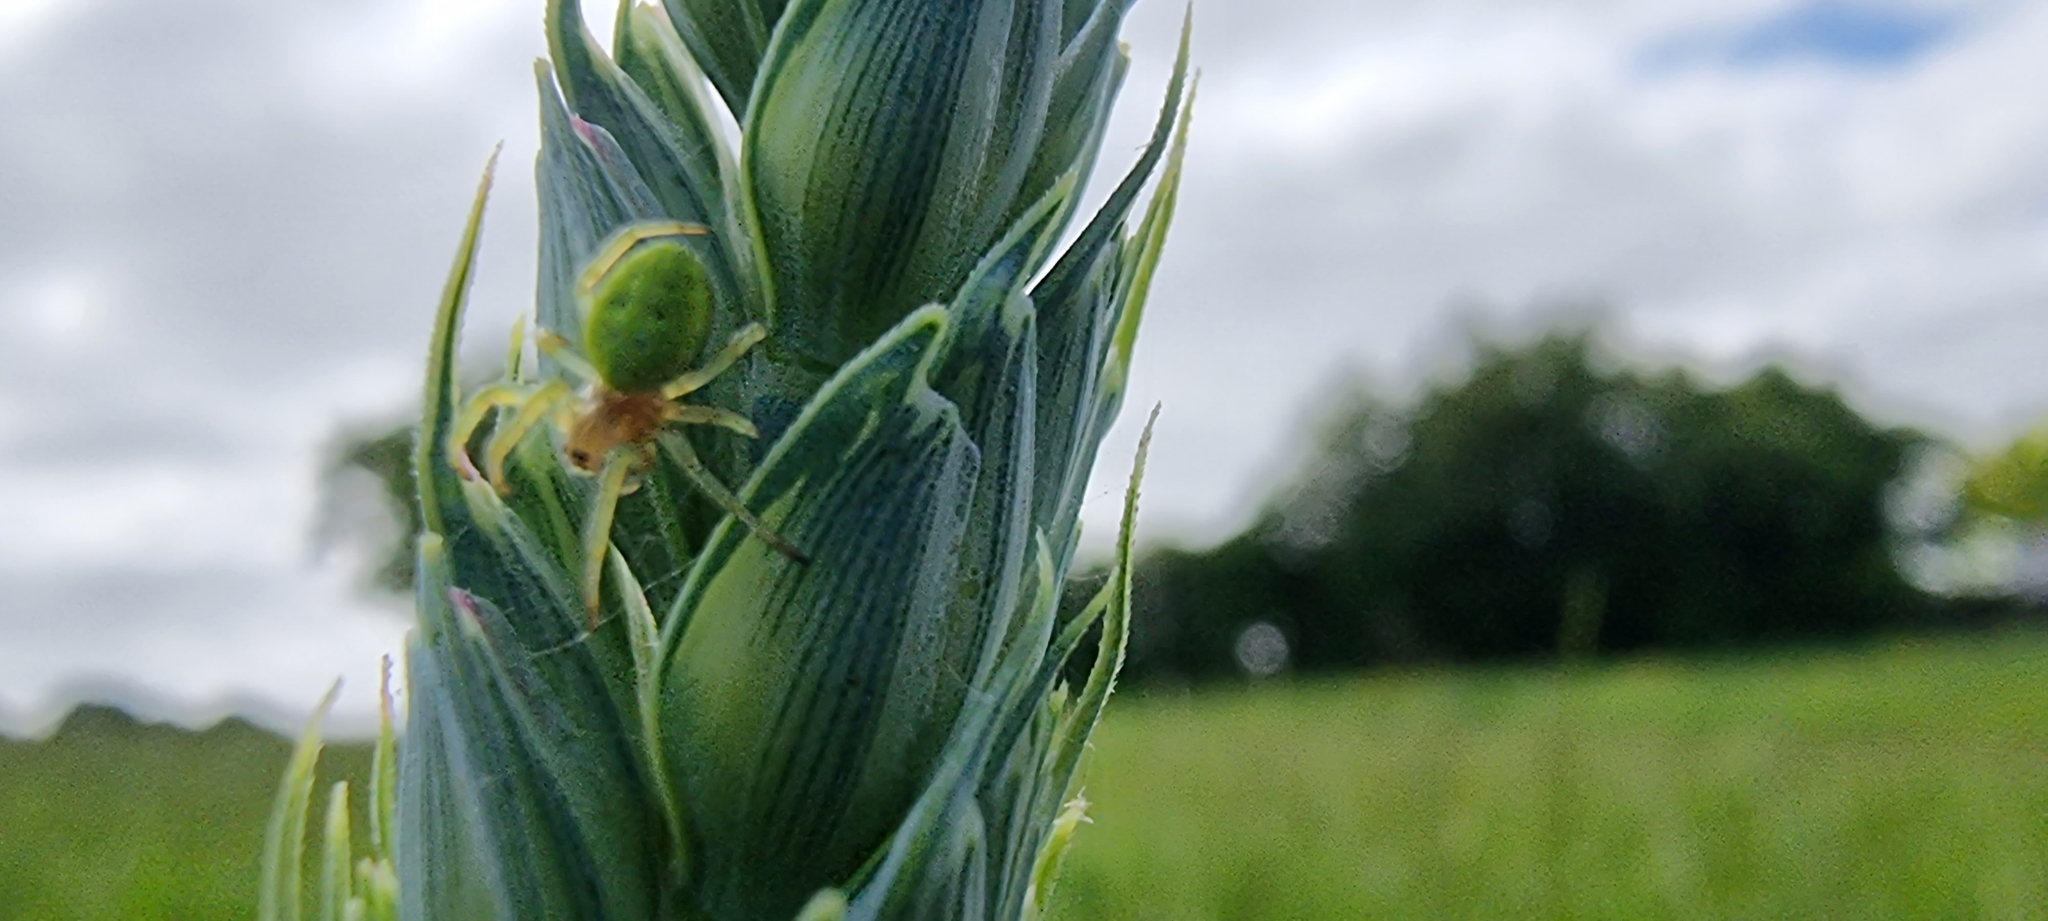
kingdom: Animalia
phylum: Arthropoda
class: Arachnida
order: Araneae
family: Araneidae
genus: Araniella
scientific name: Araniella cucurbitina
